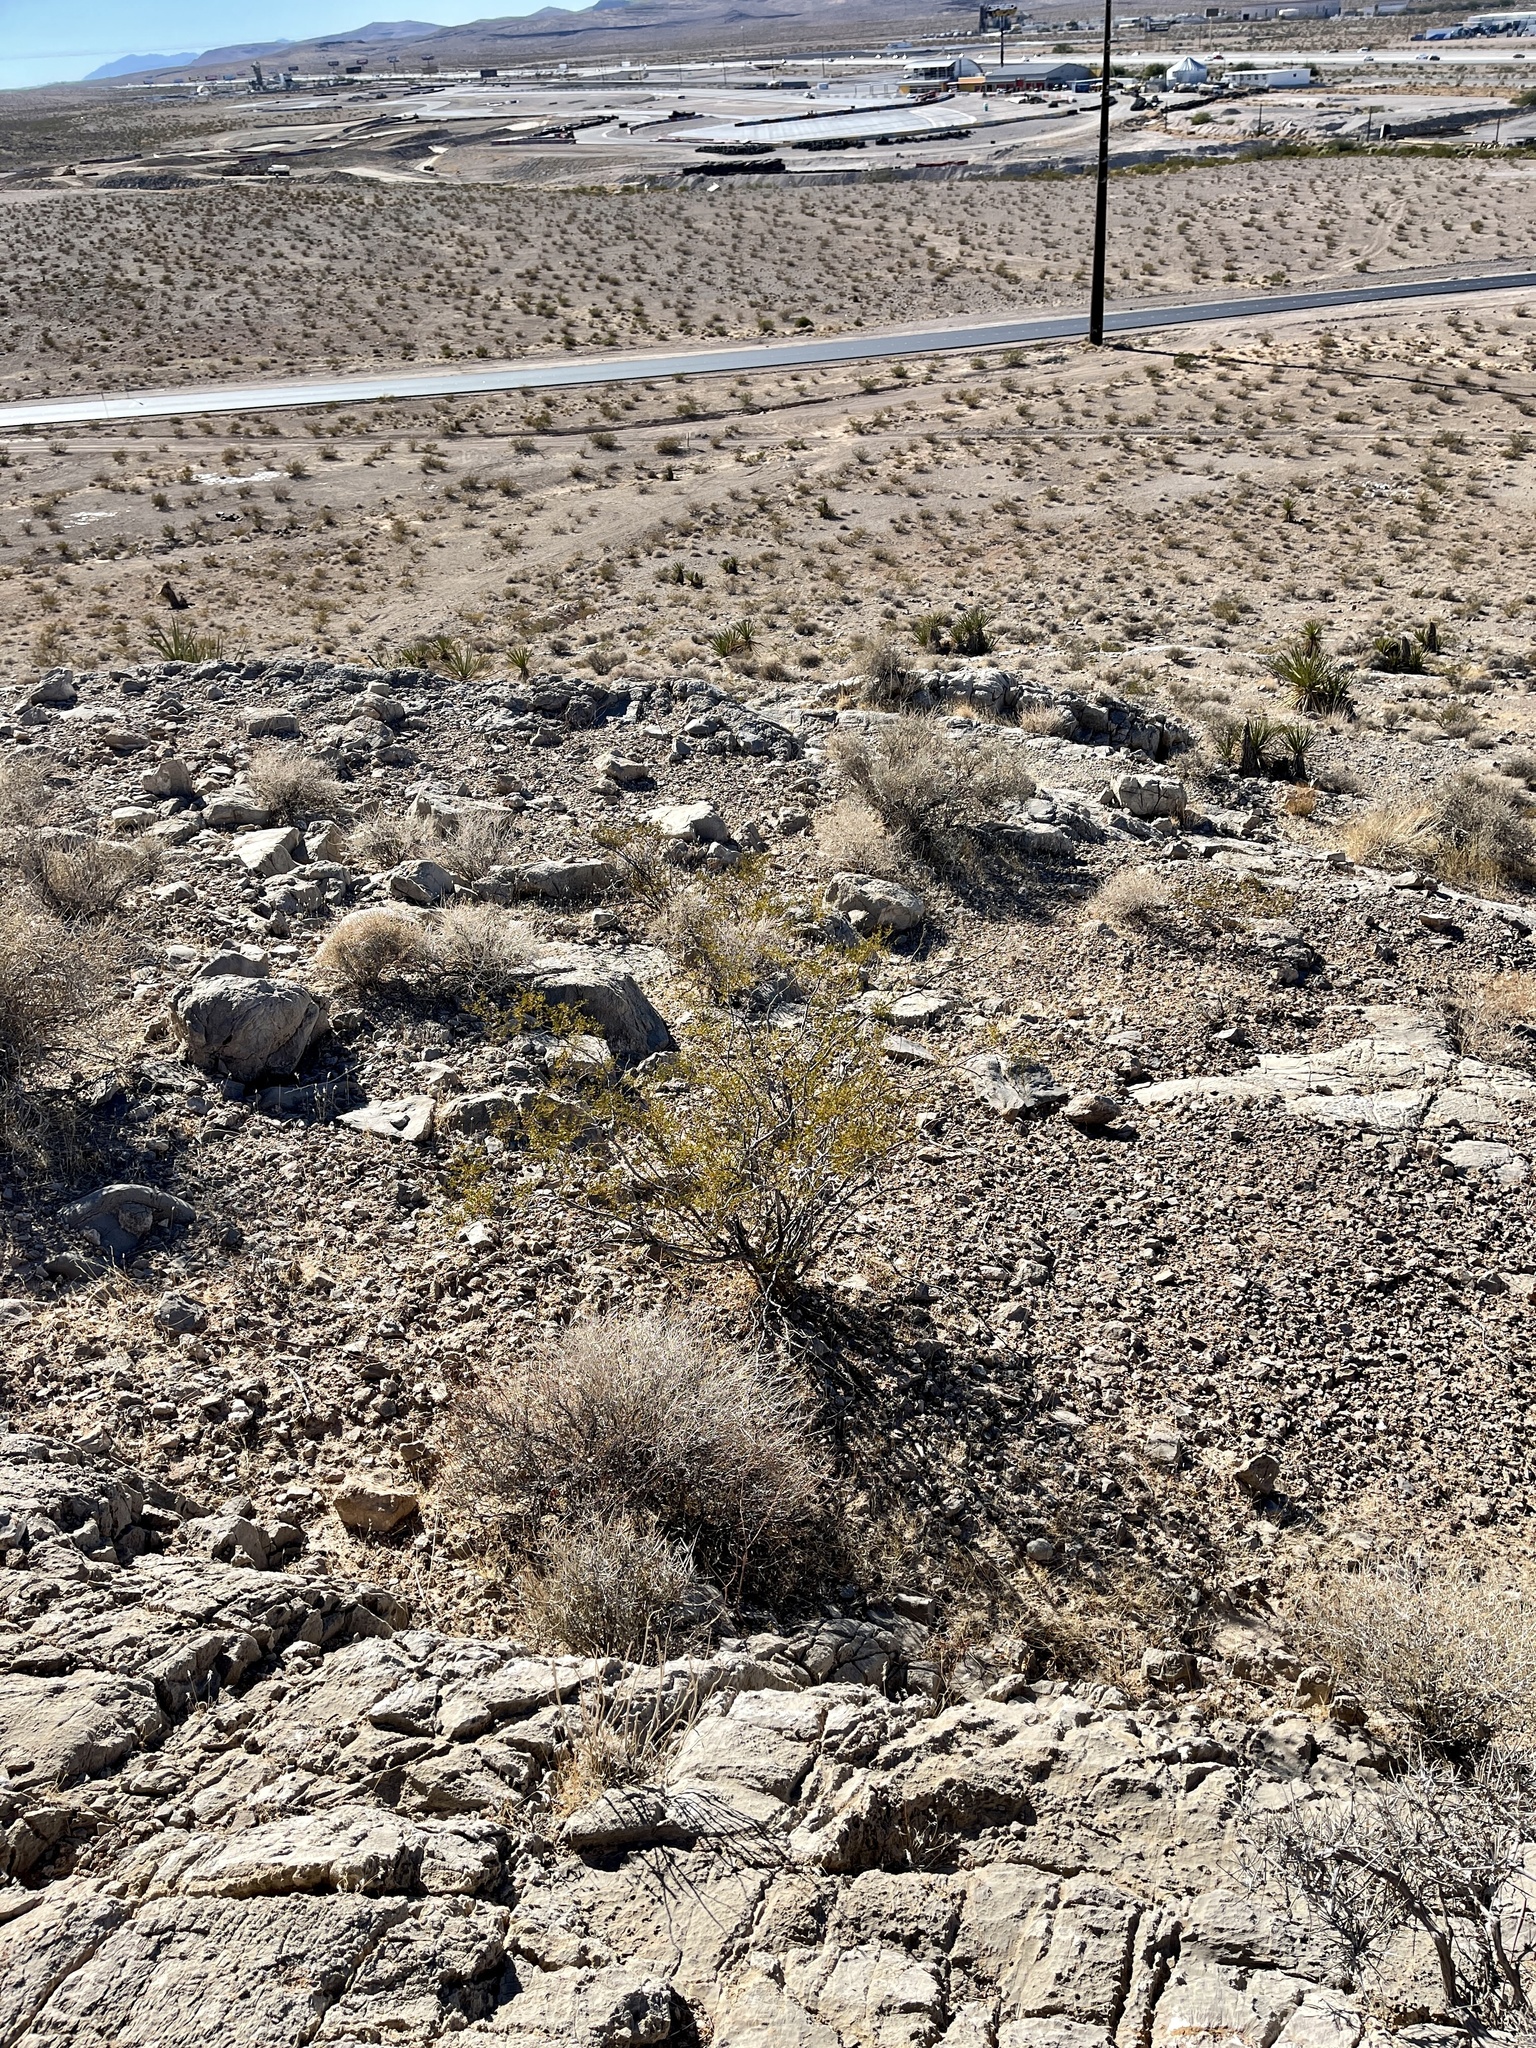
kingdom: Plantae
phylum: Tracheophyta
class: Magnoliopsida
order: Zygophyllales
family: Zygophyllaceae
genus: Larrea
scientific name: Larrea tridentata
